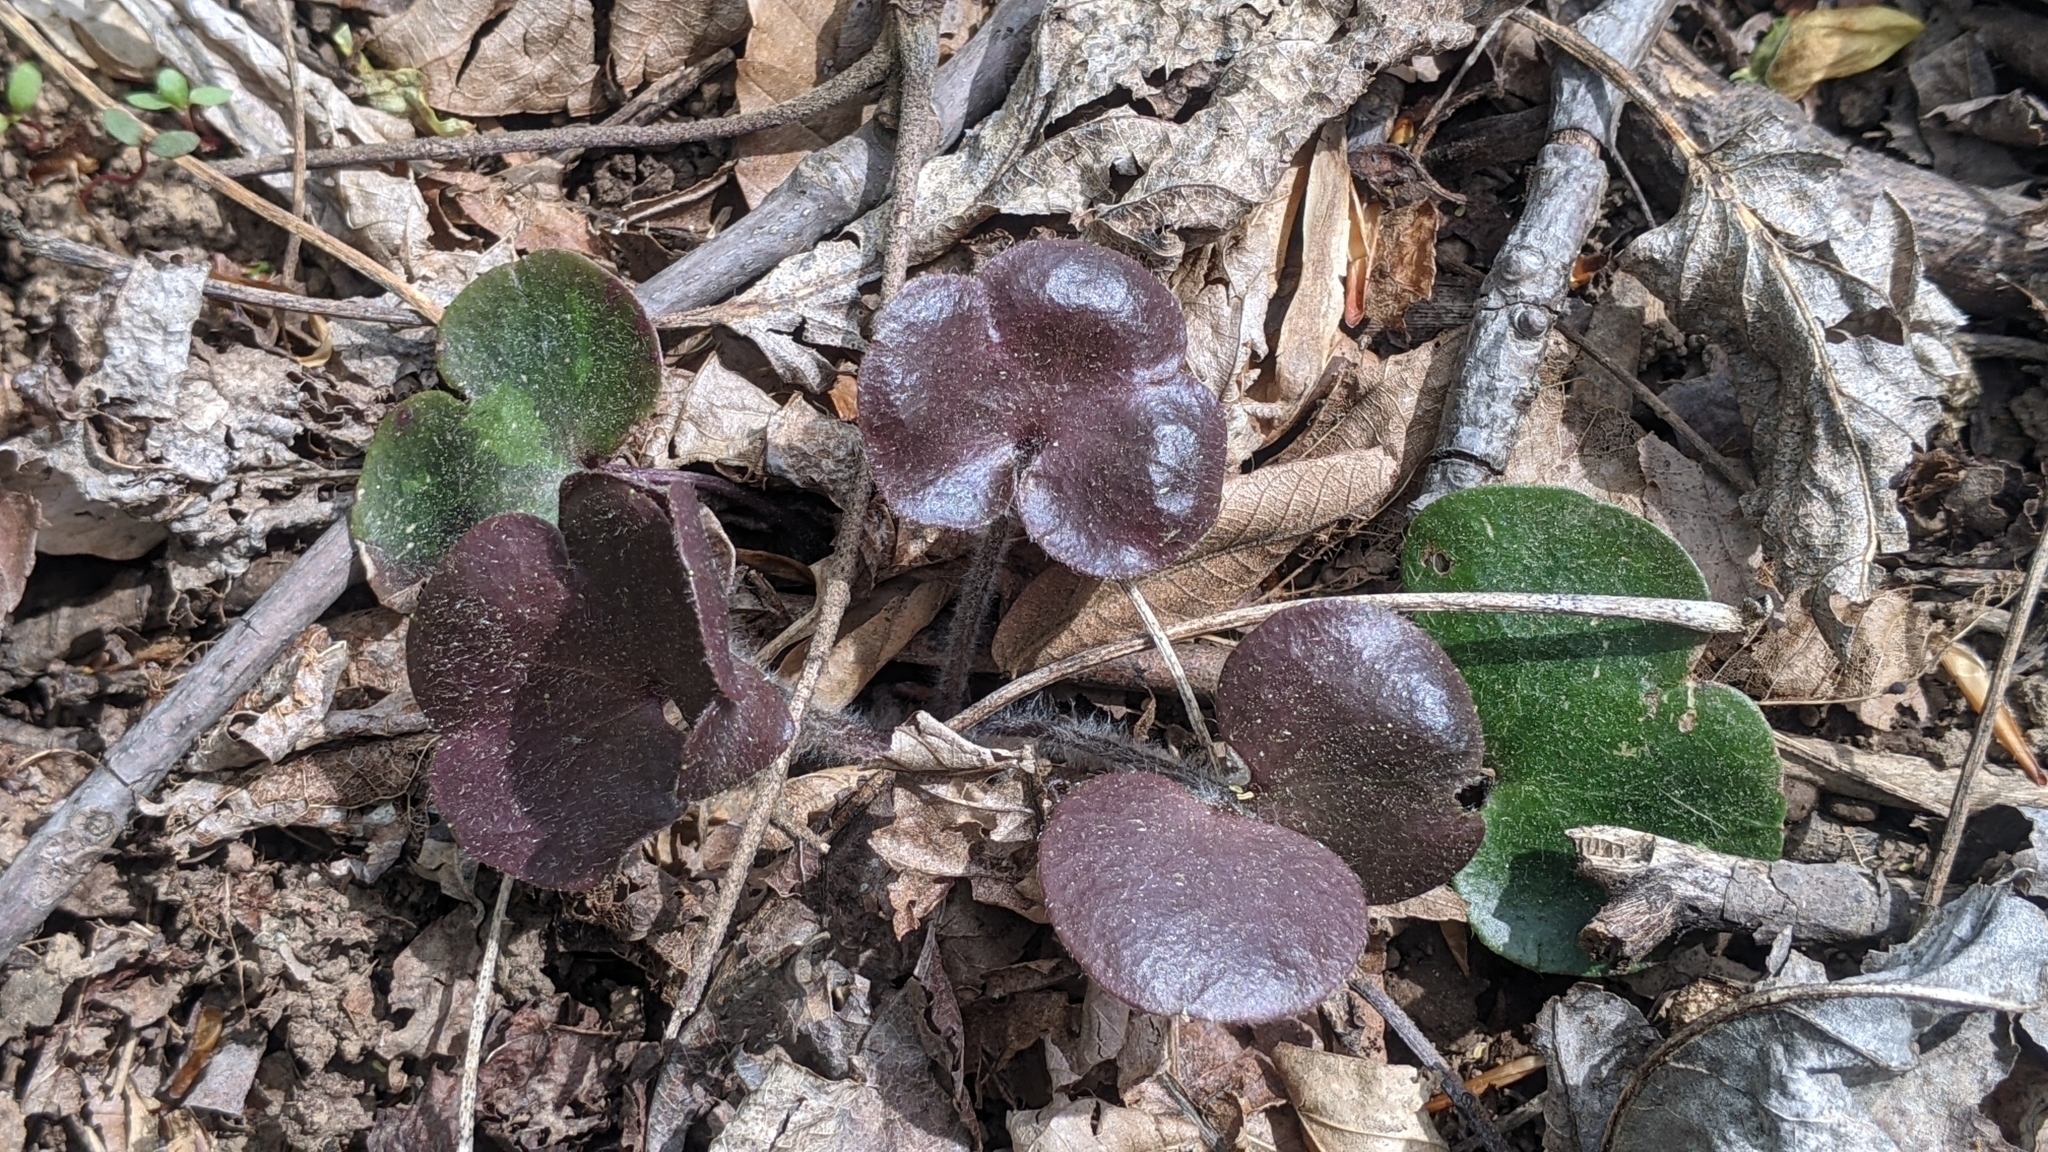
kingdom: Plantae
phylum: Tracheophyta
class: Magnoliopsida
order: Ranunculales
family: Ranunculaceae
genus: Hepatica
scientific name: Hepatica americana
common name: American hepatica
